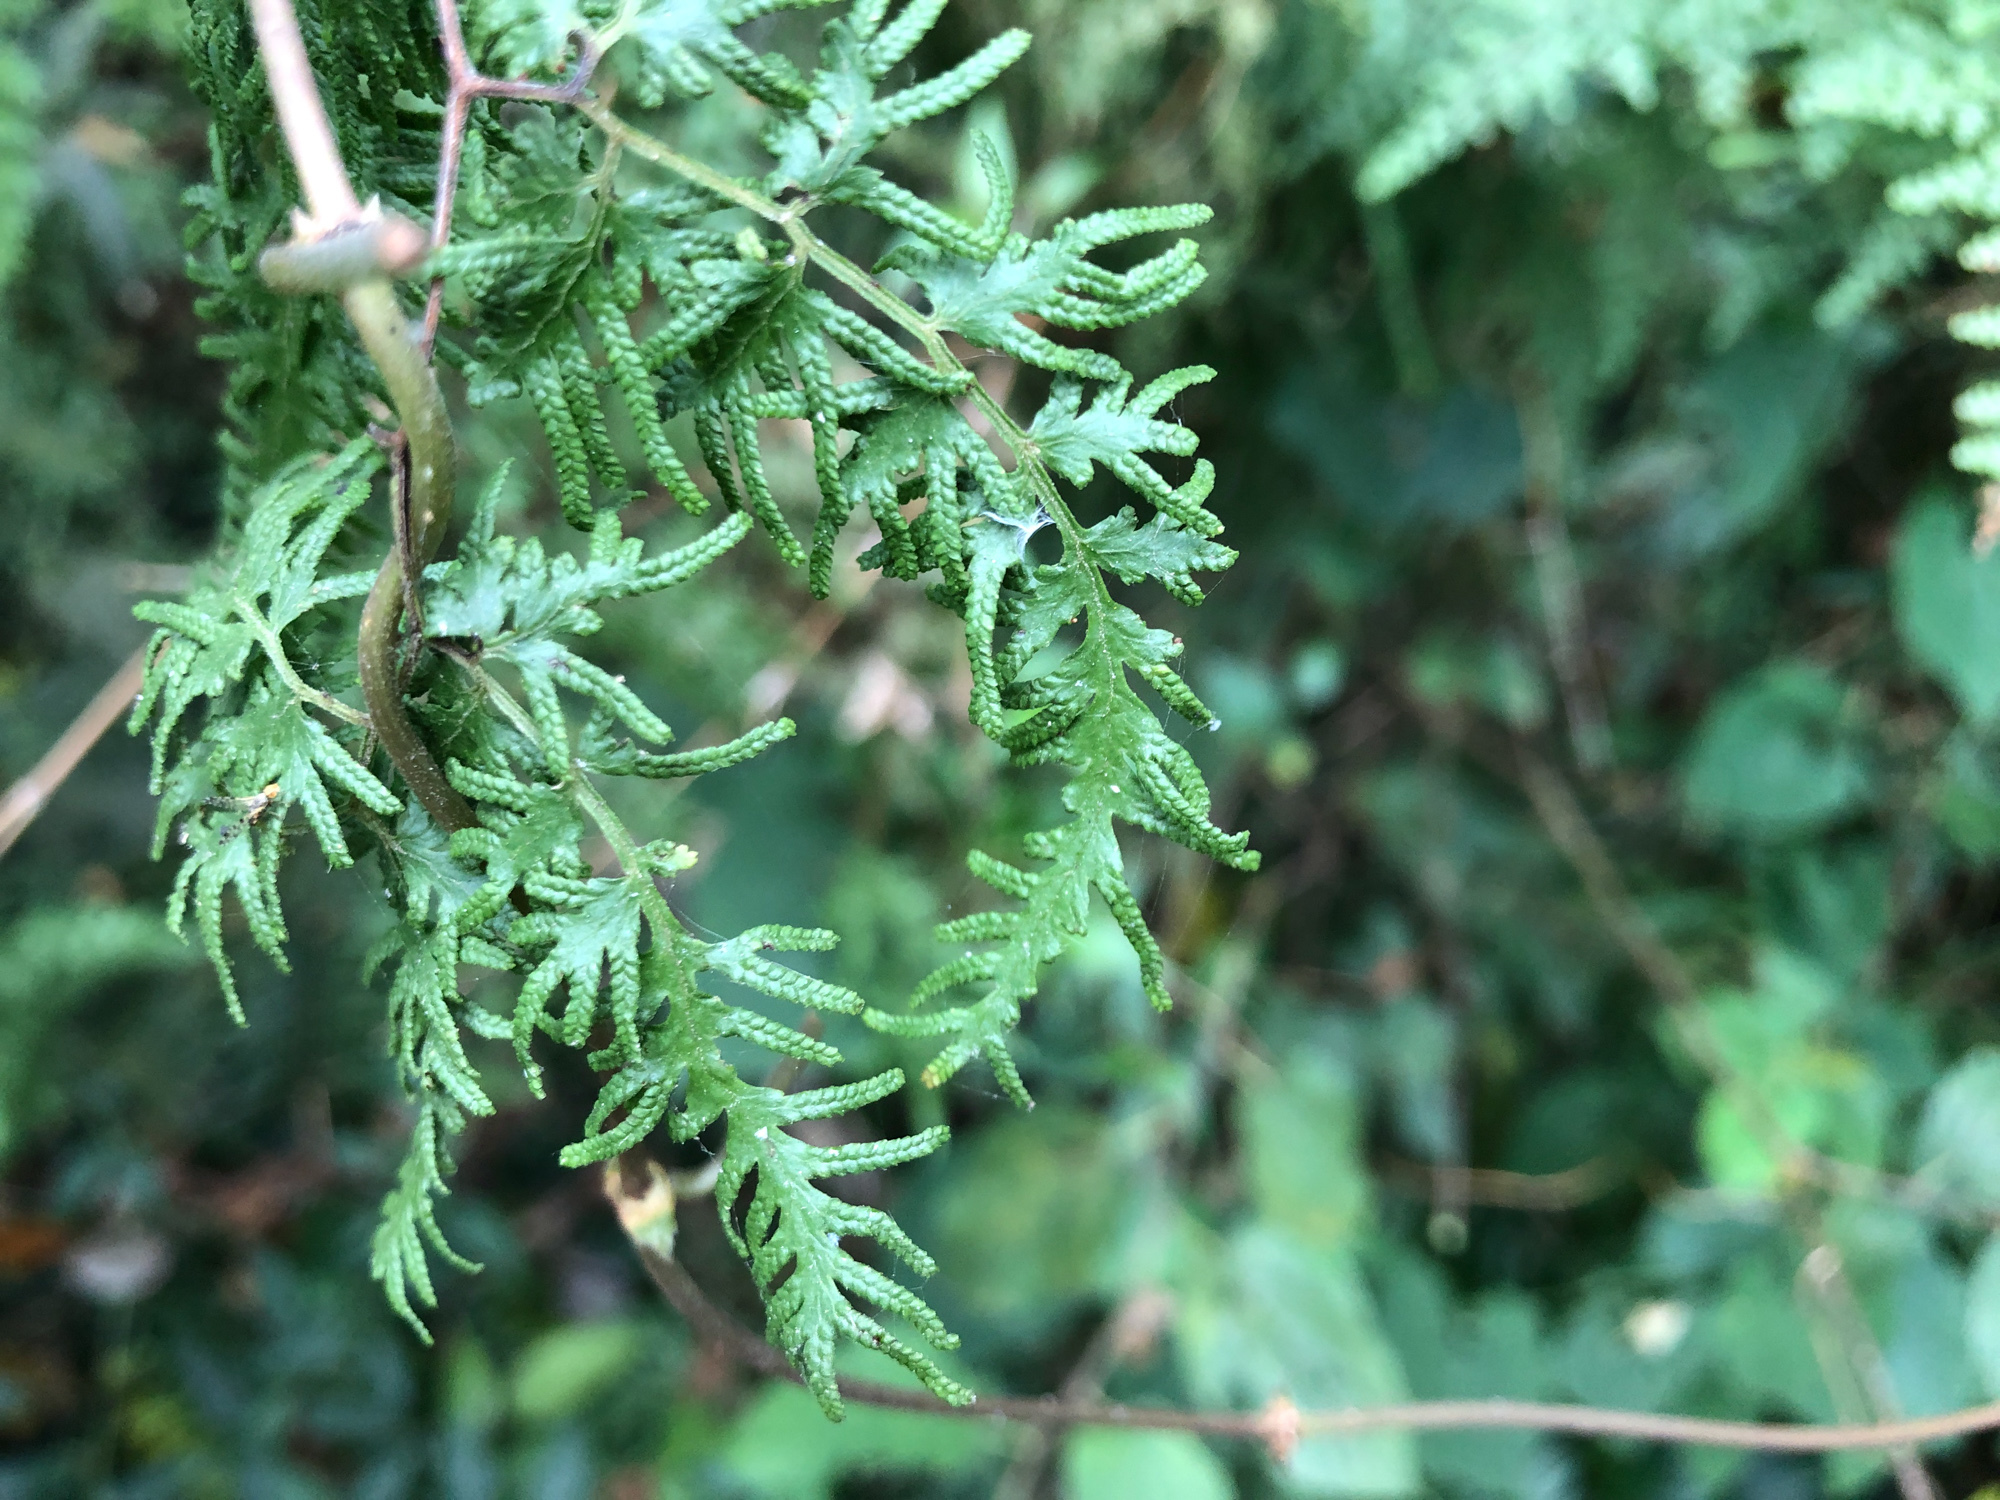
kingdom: Plantae
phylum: Tracheophyta
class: Polypodiopsida
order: Schizaeales
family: Lygodiaceae
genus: Lygodium
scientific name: Lygodium japonicum
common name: Japanese climbing fern
